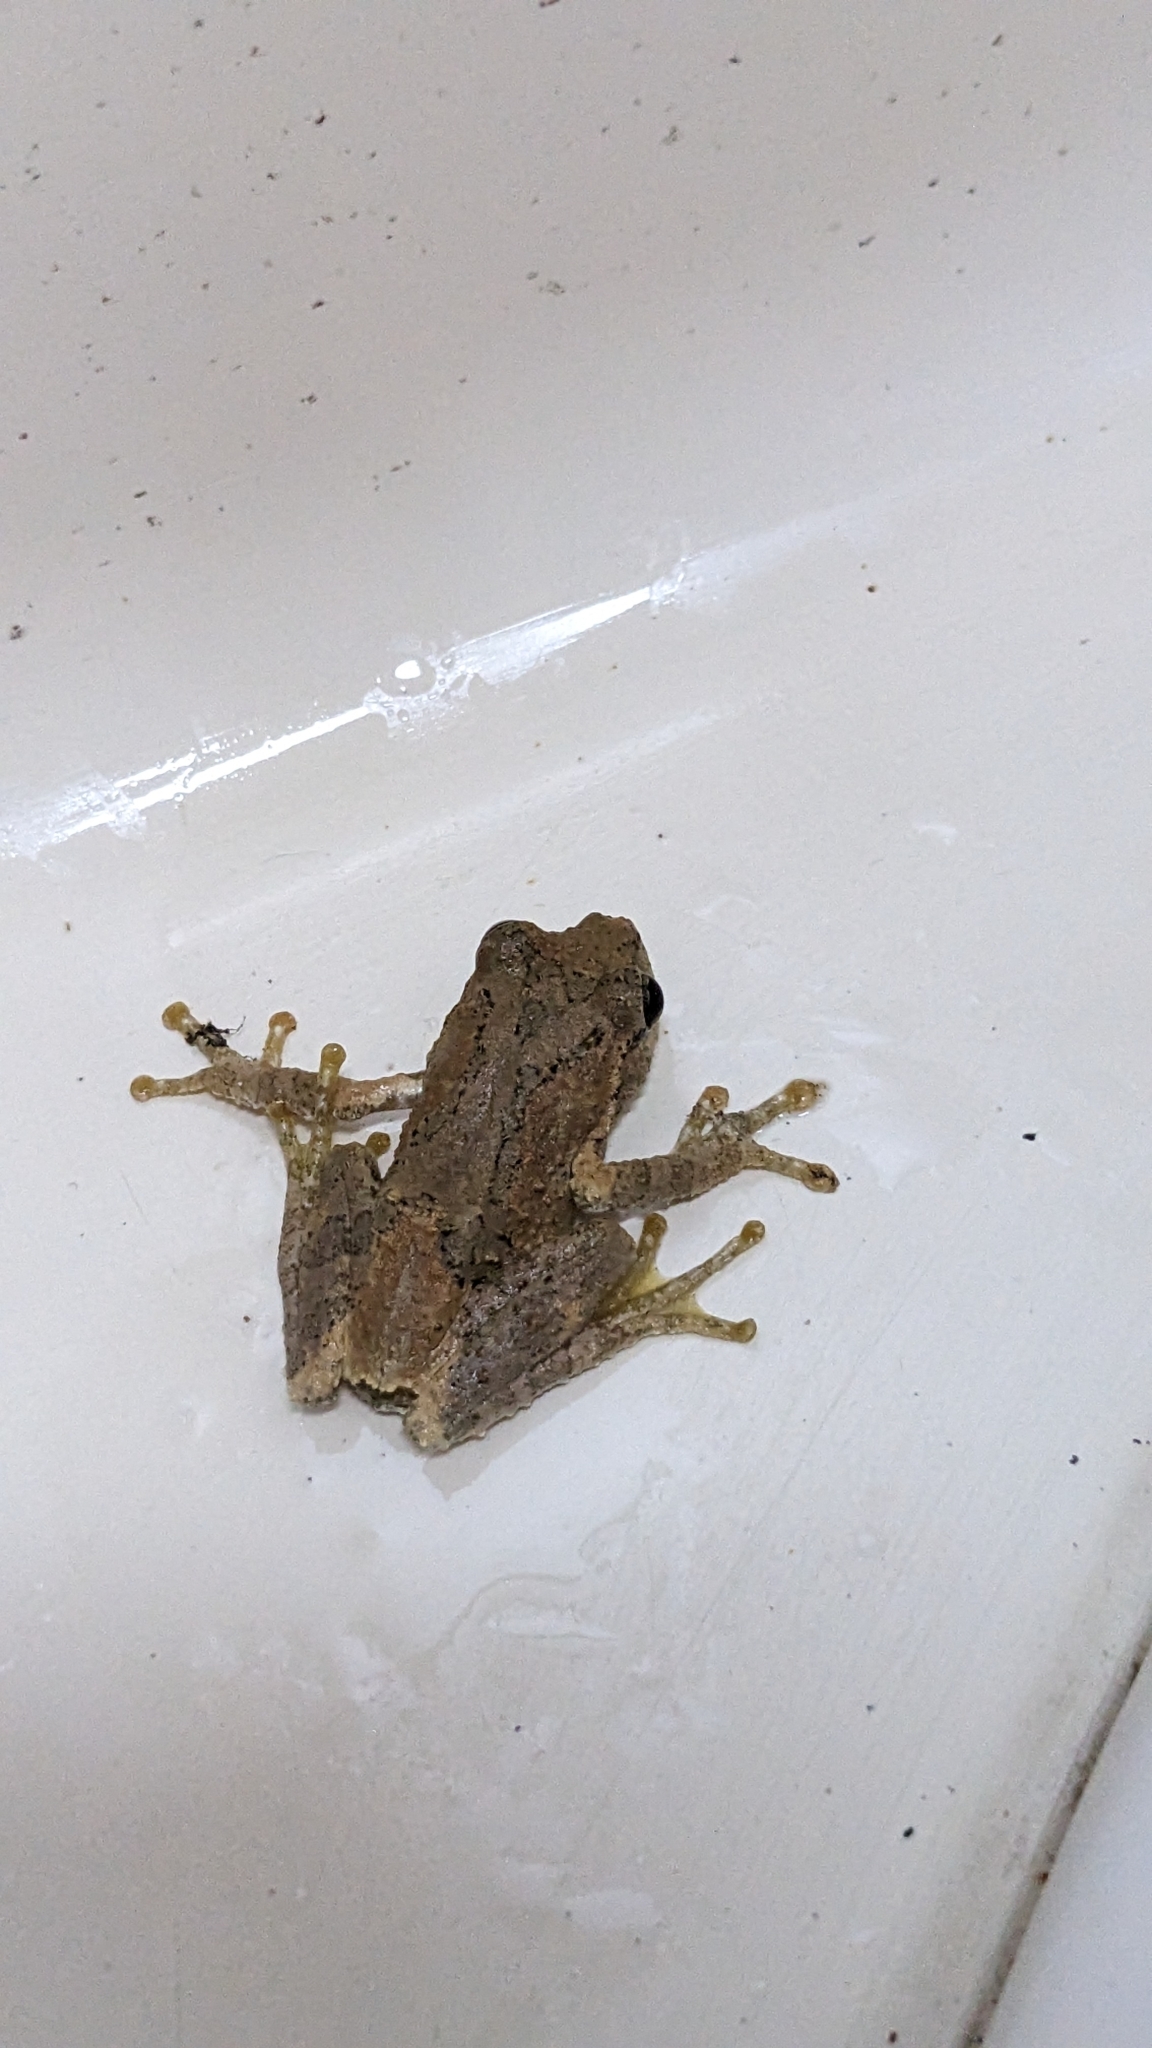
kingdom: Animalia
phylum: Chordata
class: Amphibia
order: Anura
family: Rhacophoridae
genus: Kurixalus
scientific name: Kurixalus idiootocus
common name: Temple treefrog
